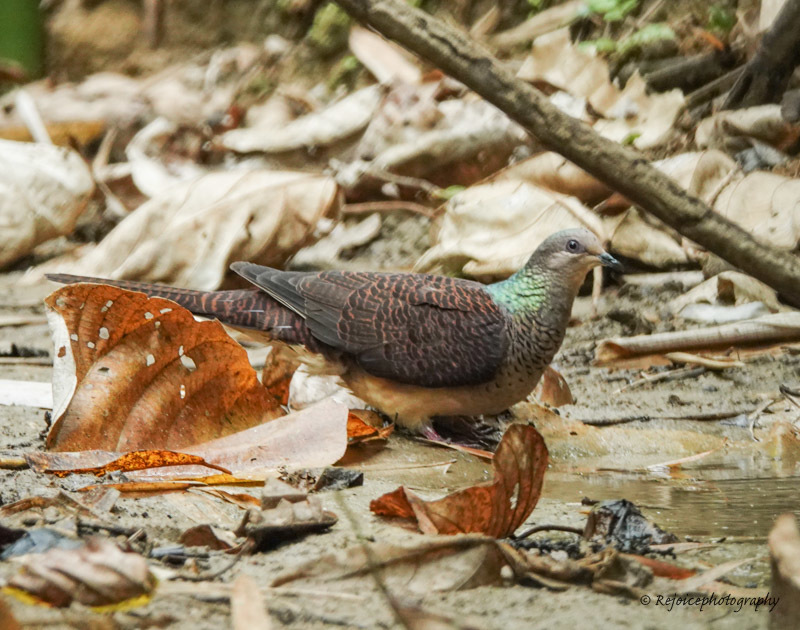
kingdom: Animalia
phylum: Chordata
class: Aves
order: Columbiformes
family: Columbidae
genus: Macropygia
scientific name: Macropygia unchall
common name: Barred cuckoo-dove
